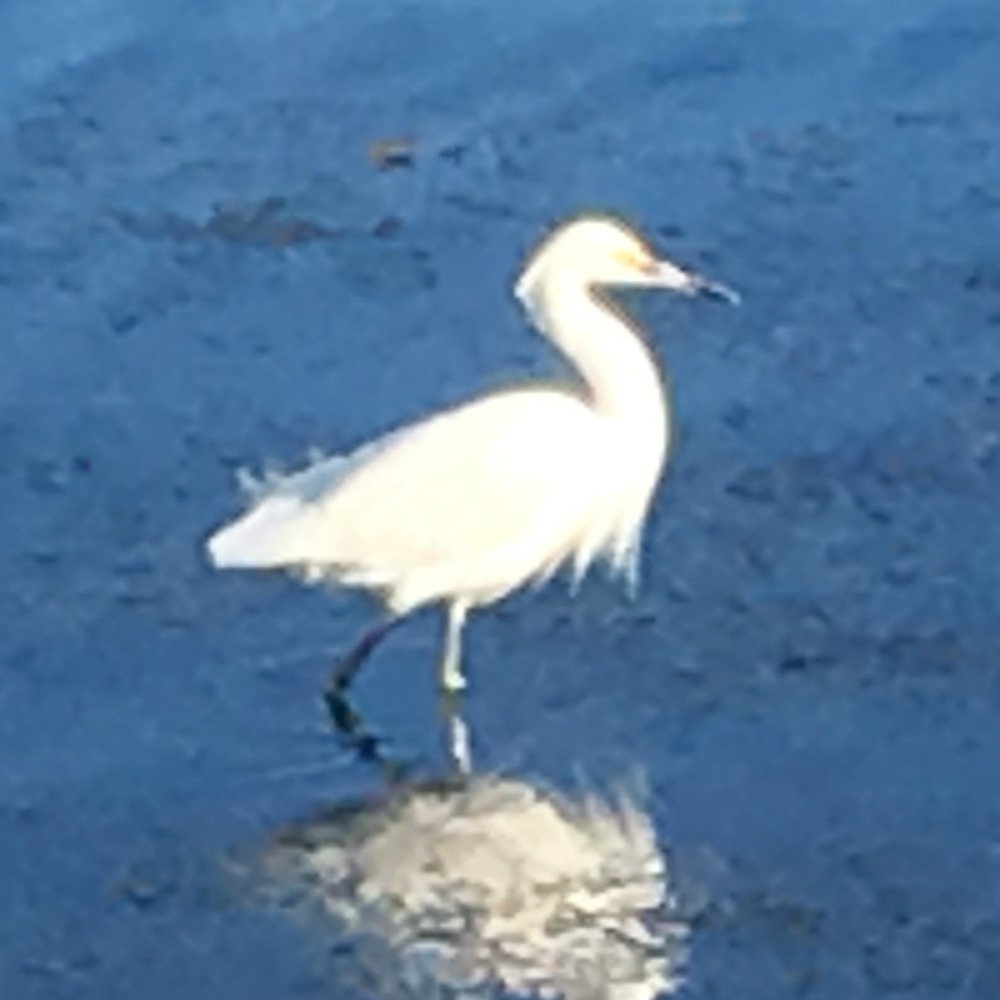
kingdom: Animalia
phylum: Chordata
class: Aves
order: Pelecaniformes
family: Ardeidae
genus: Egretta
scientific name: Egretta thula
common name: Snowy egret
